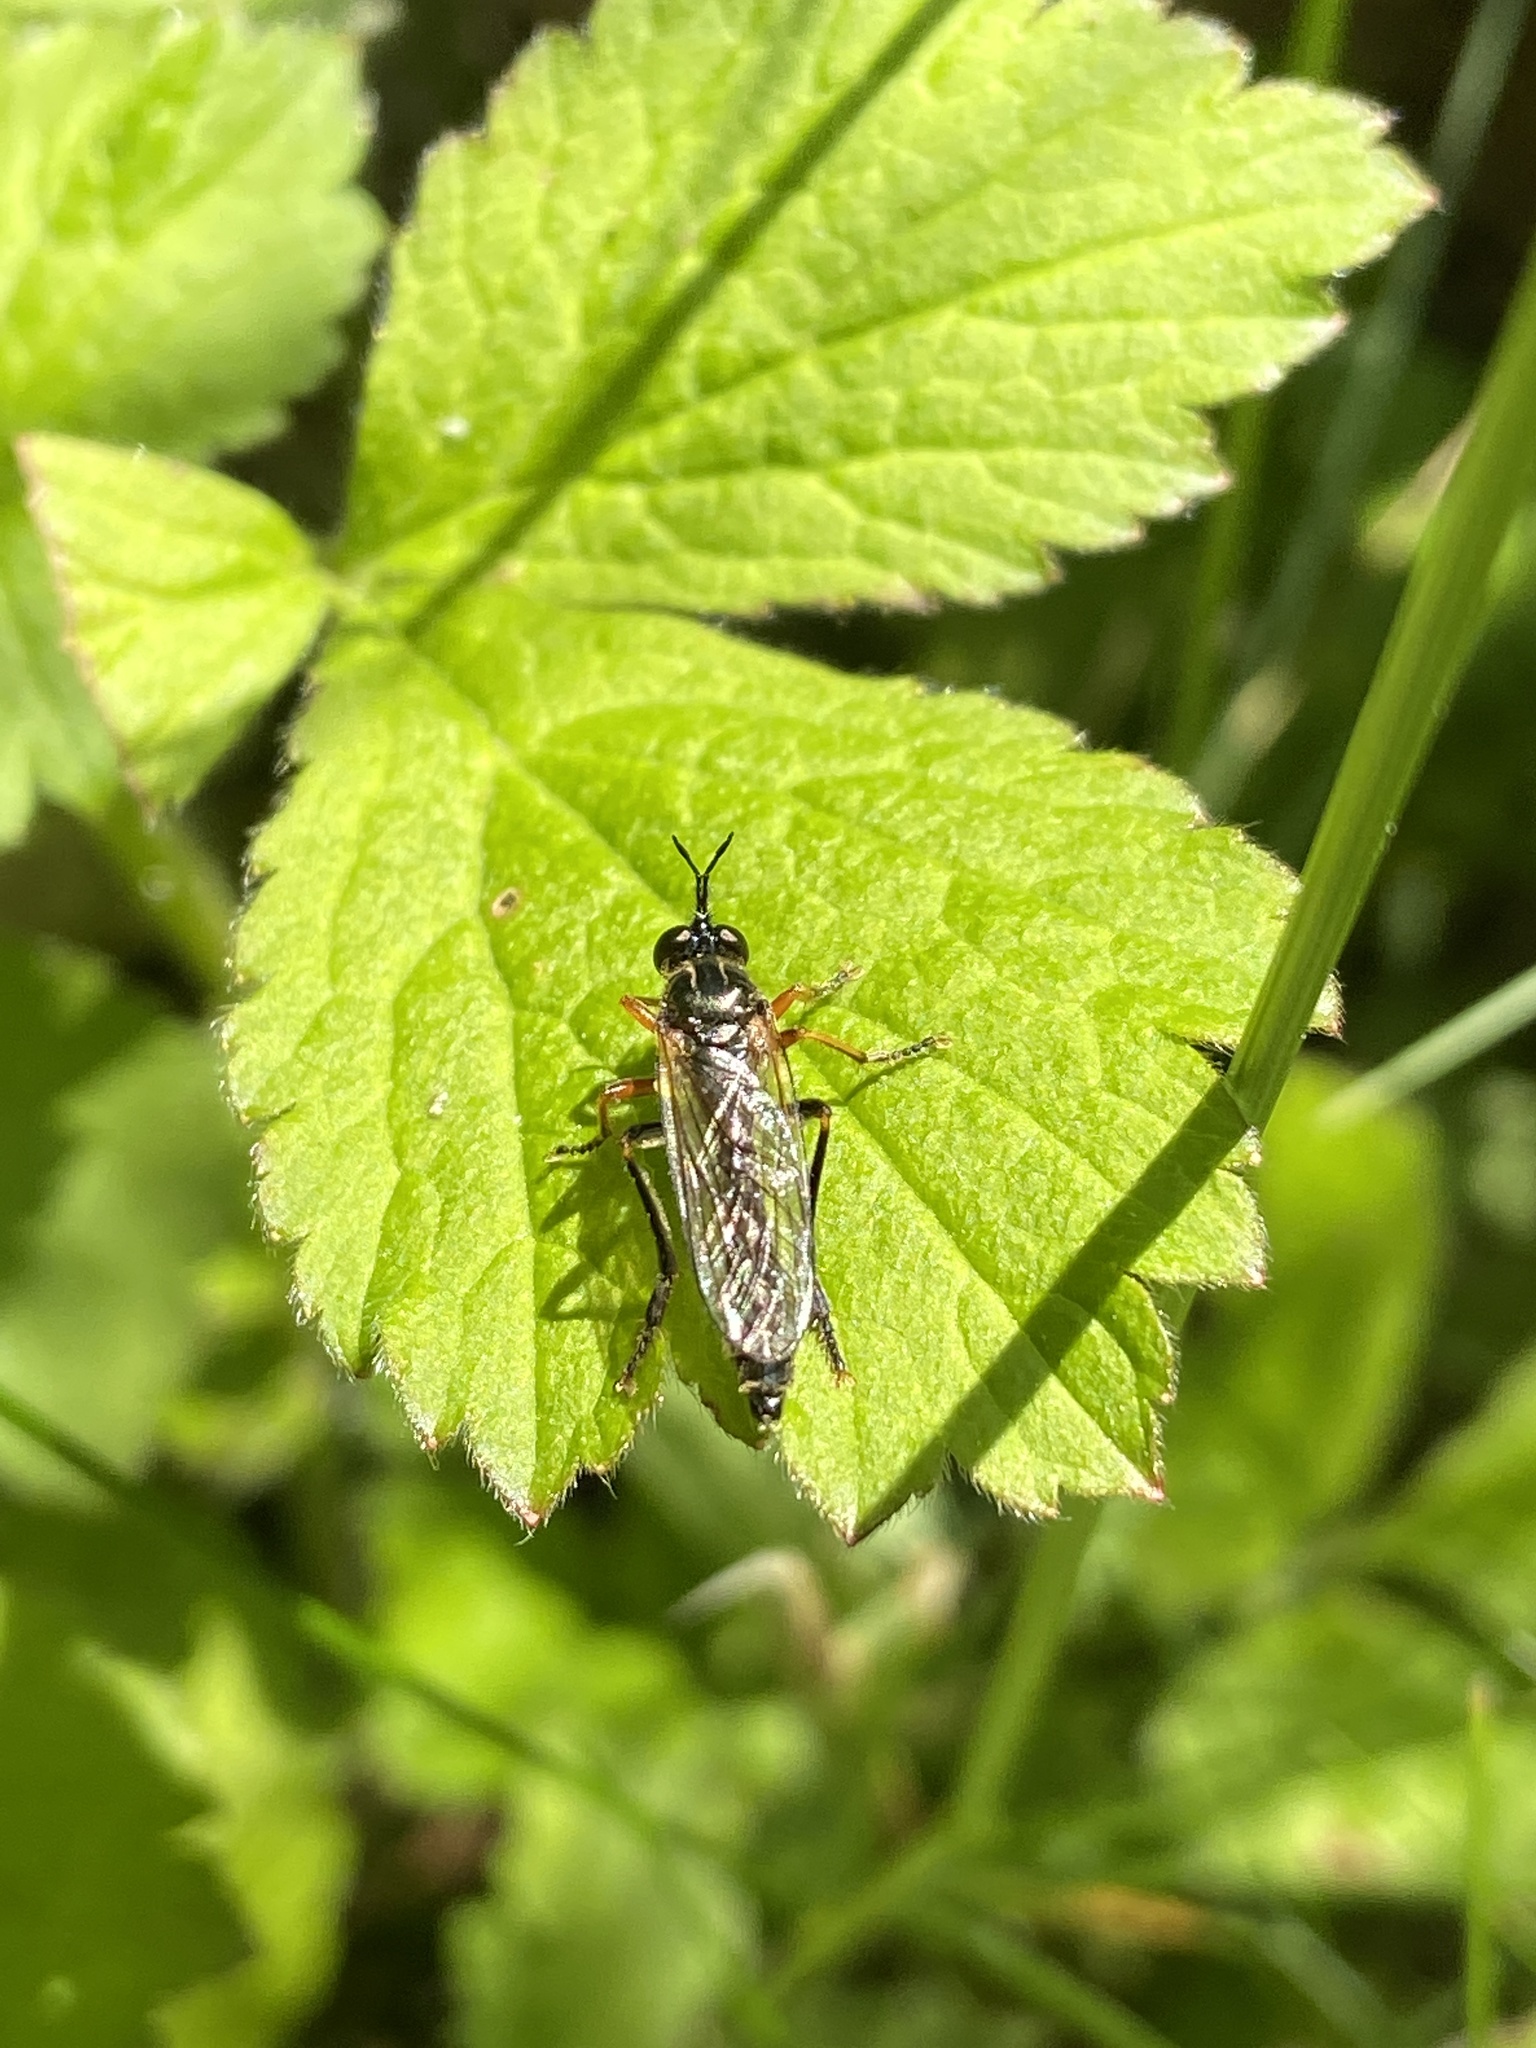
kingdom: Animalia
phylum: Arthropoda
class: Insecta
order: Diptera
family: Asilidae
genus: Dioctria
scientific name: Dioctria rufipes
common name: Common red-legged robberfly
